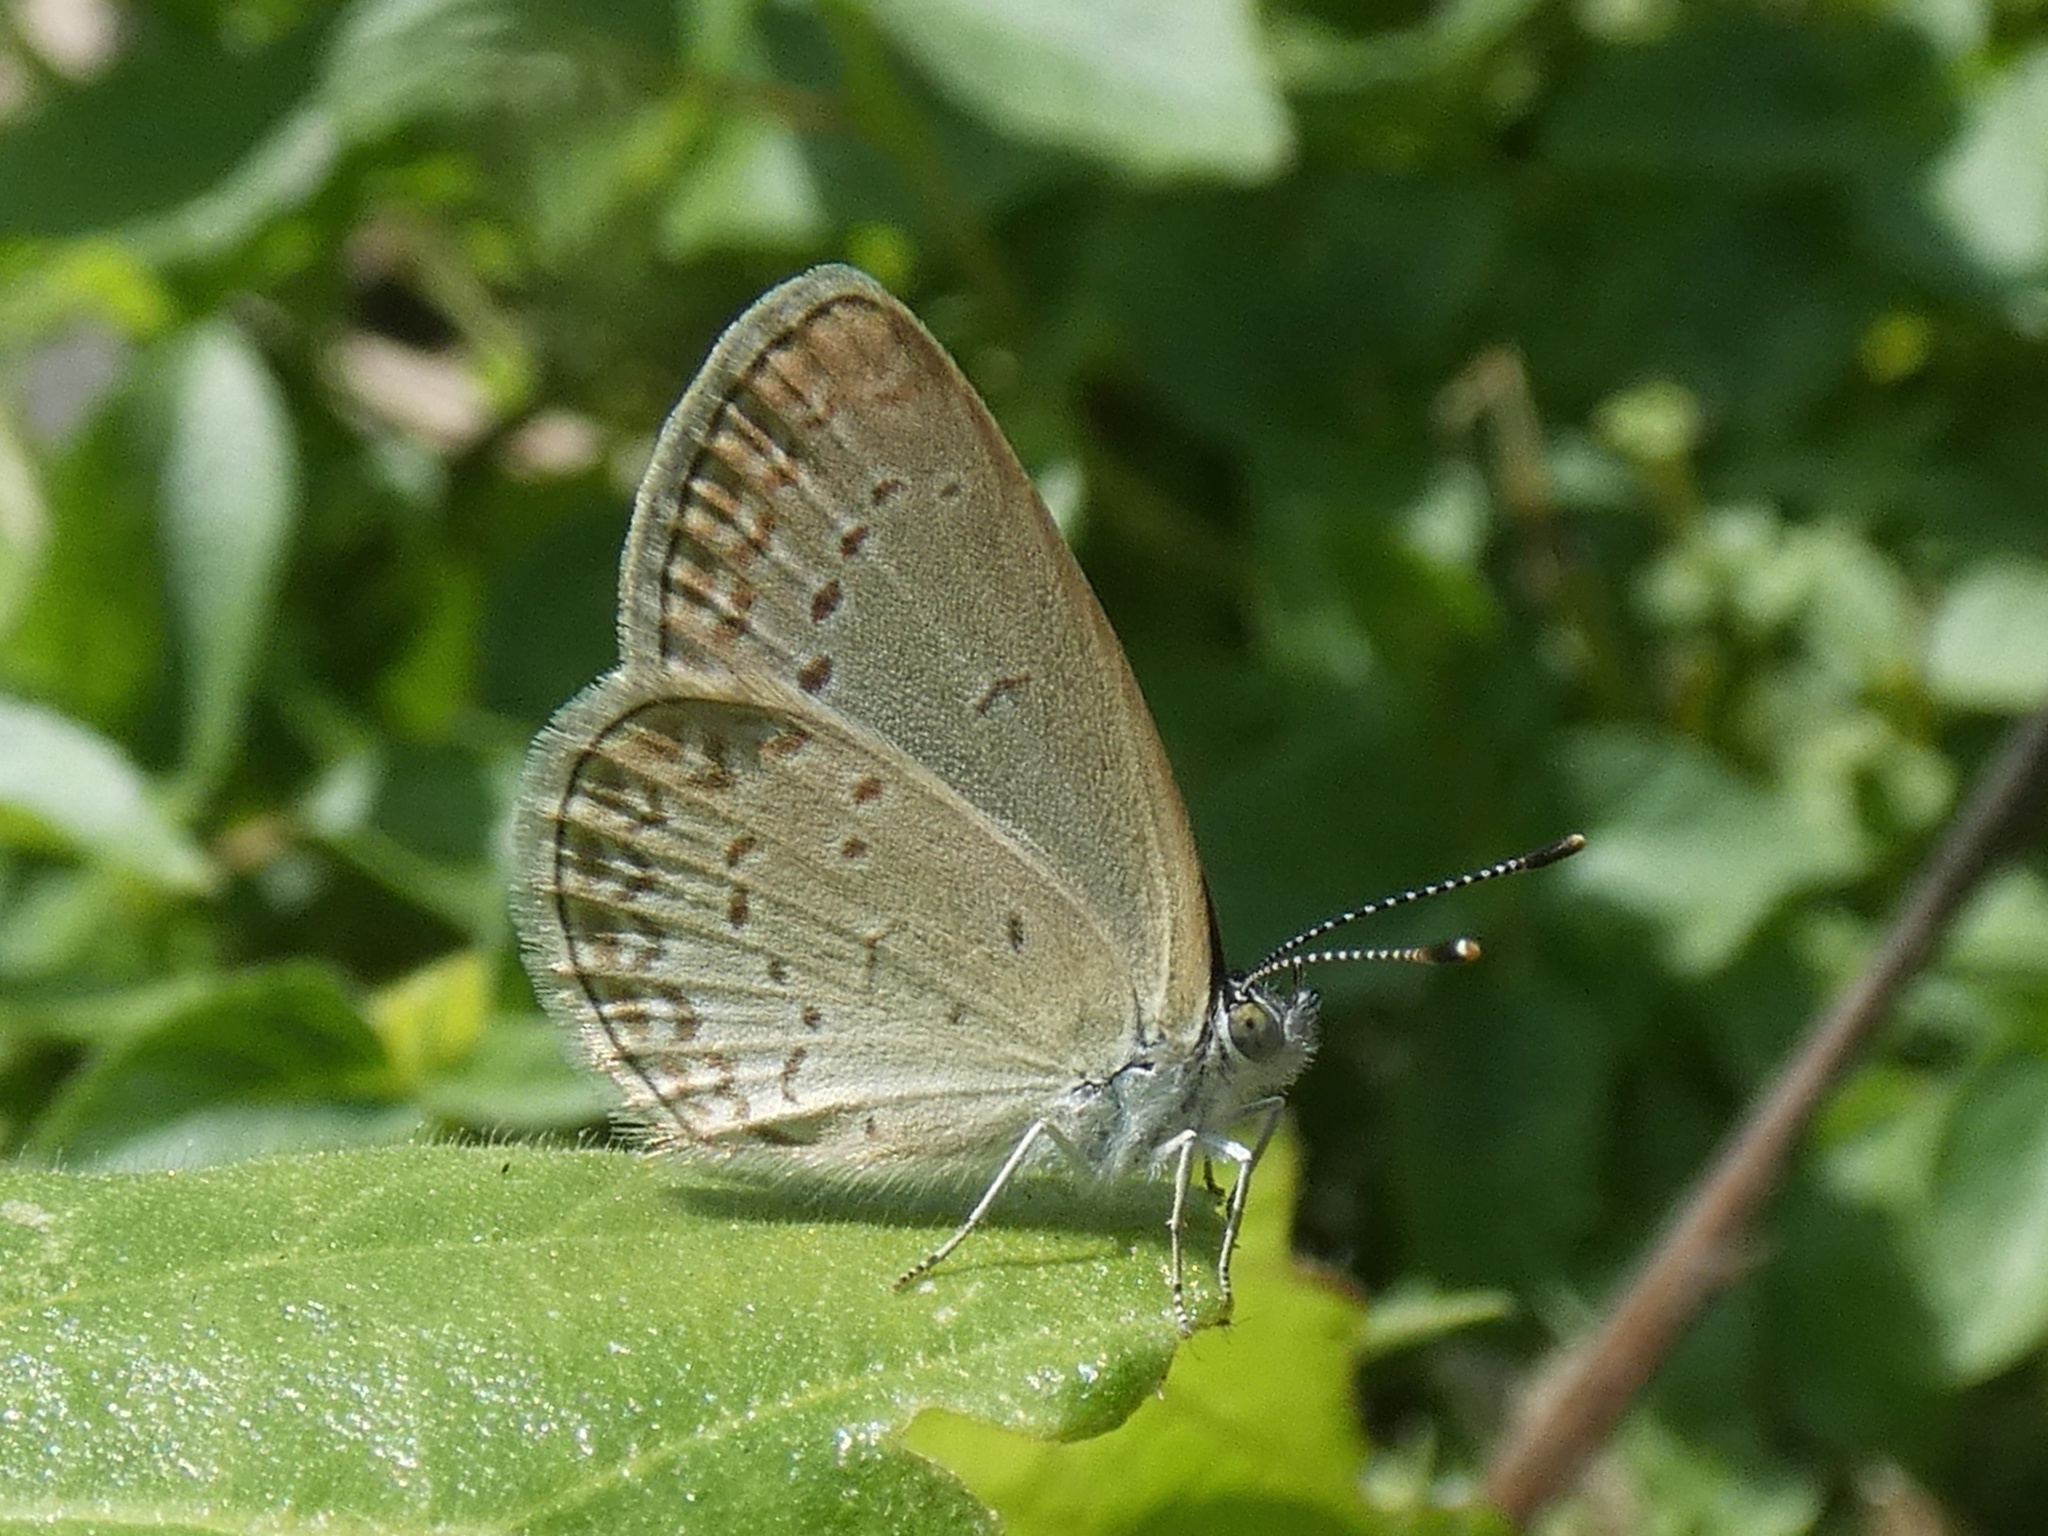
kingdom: Animalia
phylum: Arthropoda
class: Insecta
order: Lepidoptera
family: Lycaenidae
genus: Zizina
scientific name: Zizina otis
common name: Lesser grass blue
